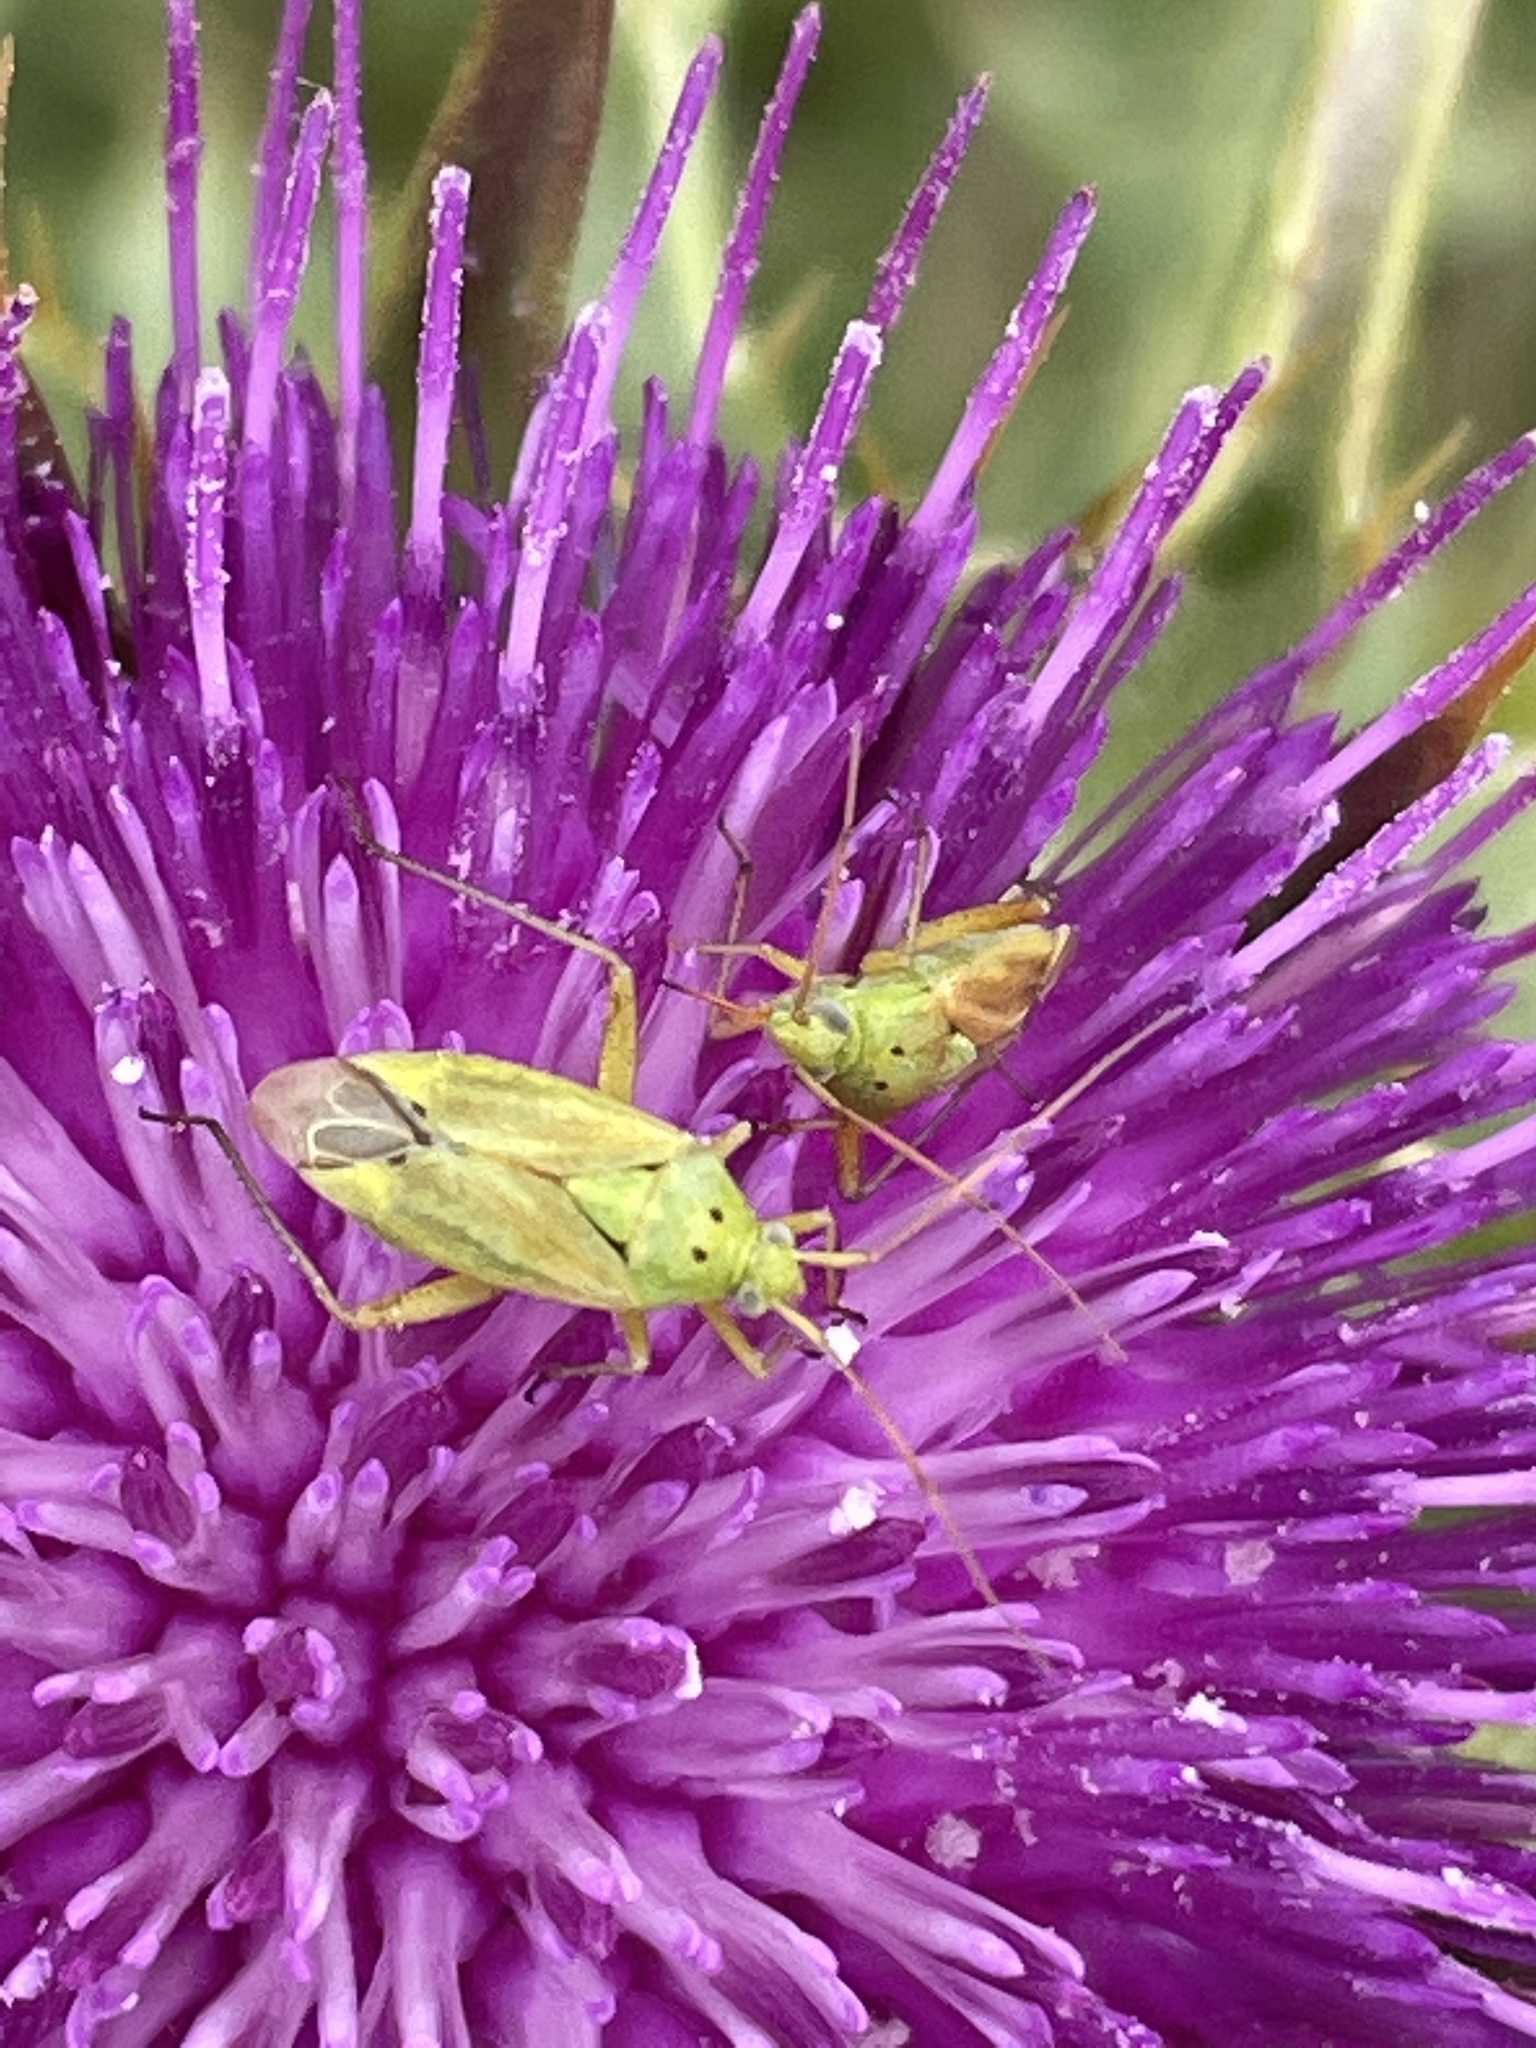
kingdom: Animalia
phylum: Arthropoda
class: Insecta
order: Hemiptera
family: Miridae
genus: Closterotomus
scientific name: Closterotomus norvegicus
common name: Plant bug
